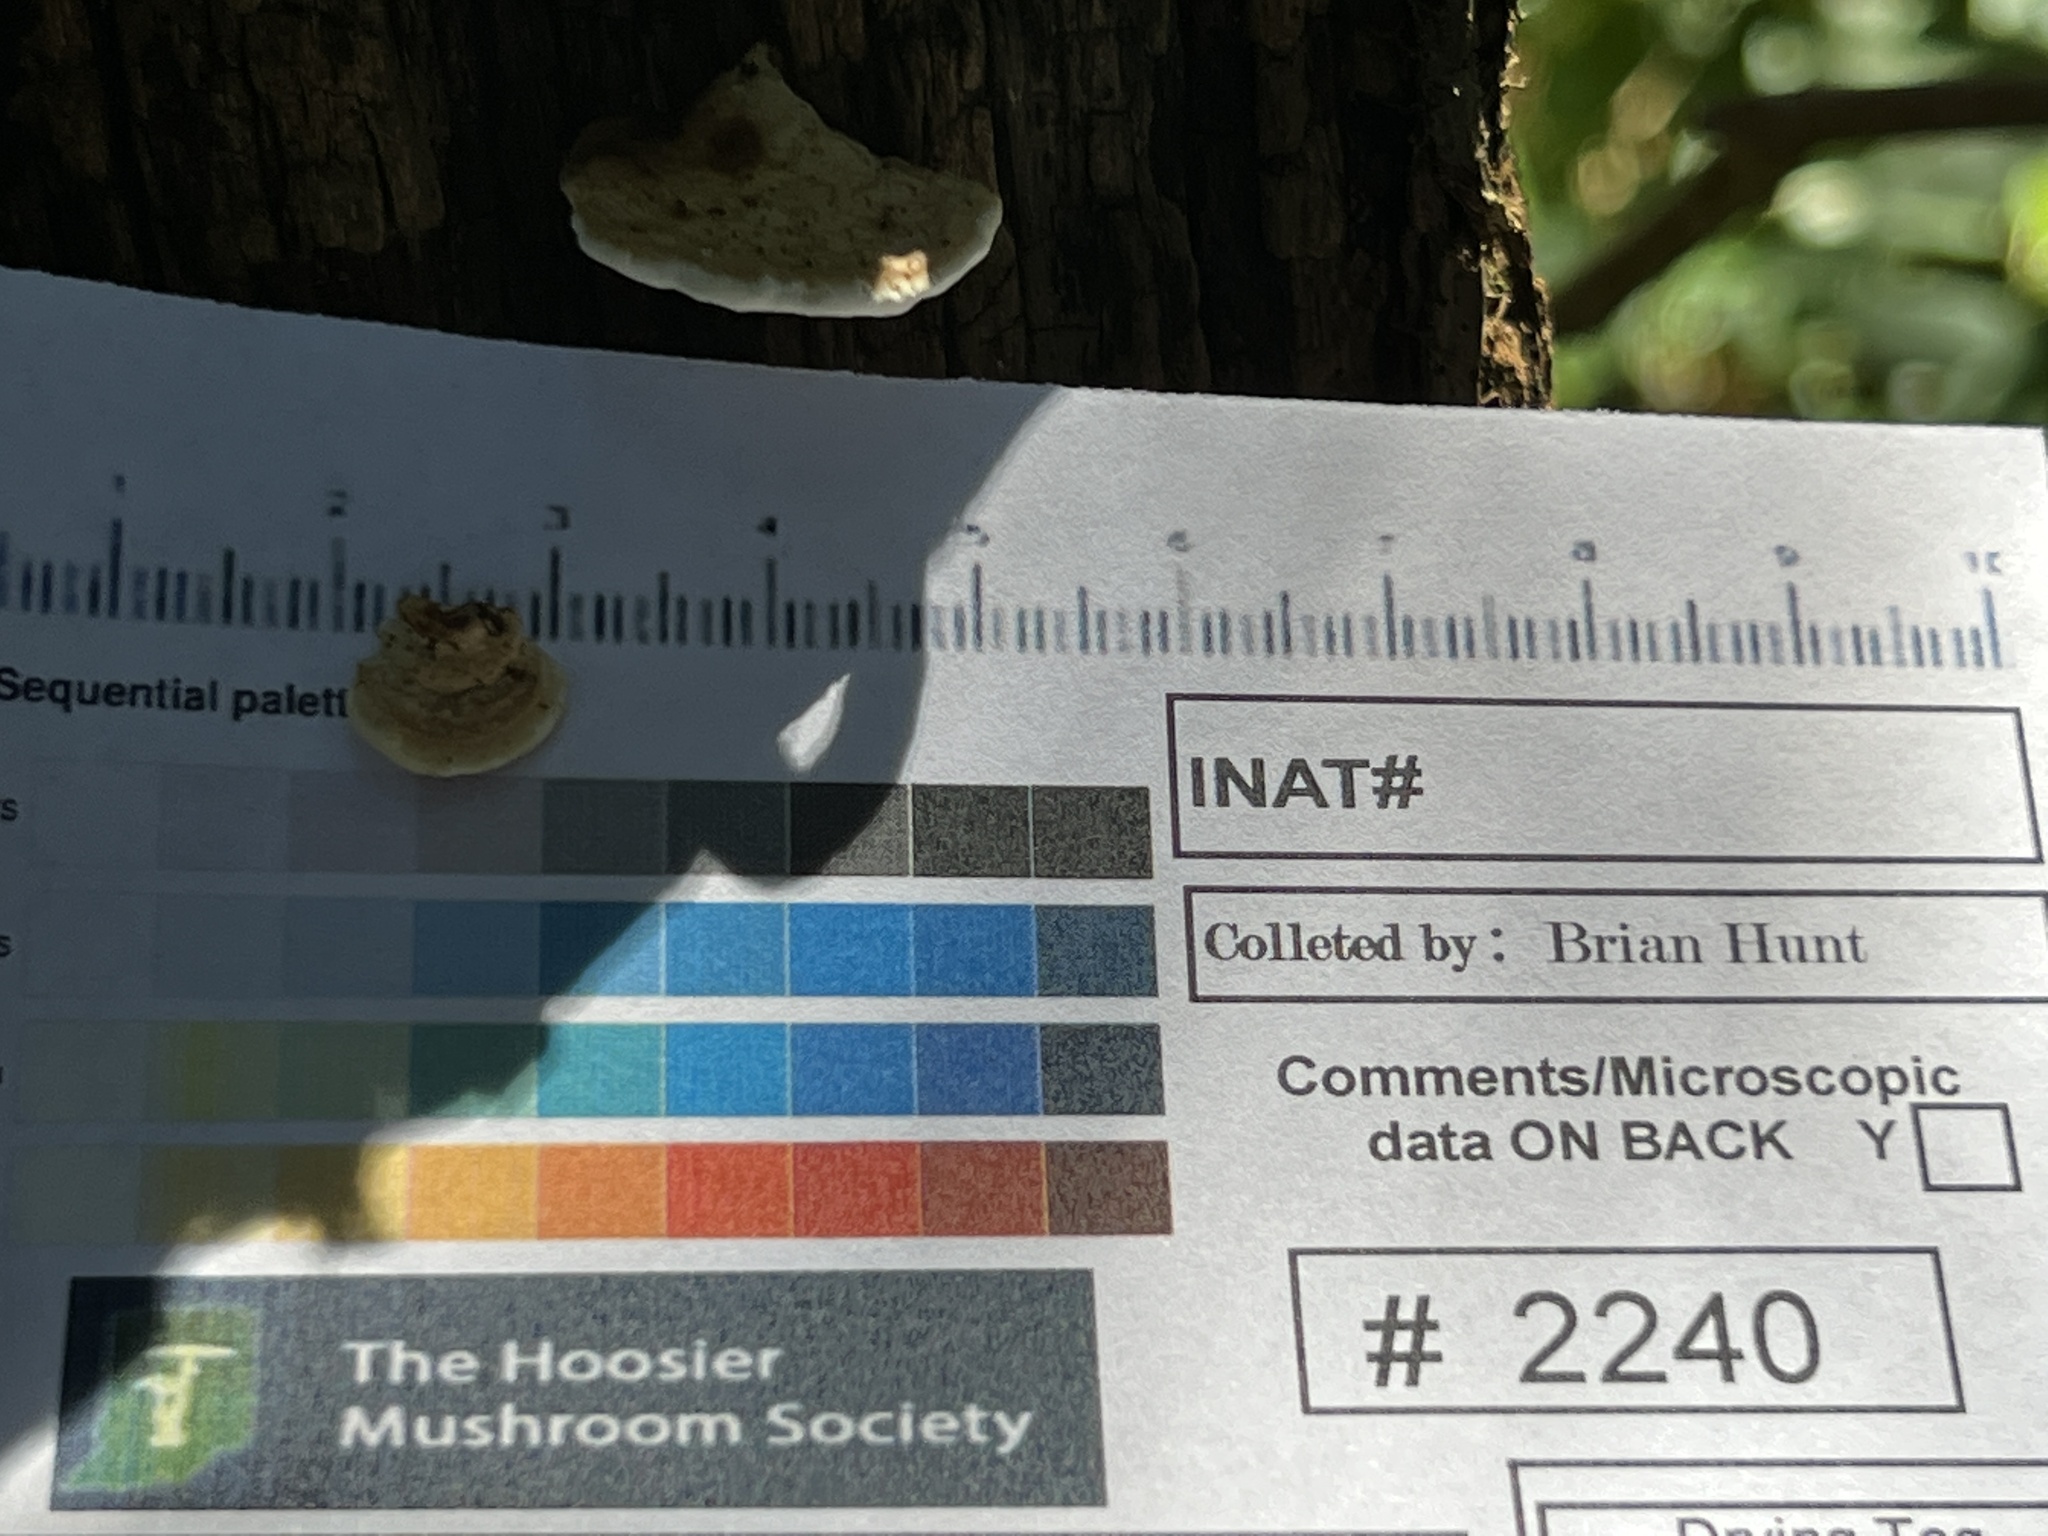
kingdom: Fungi
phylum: Basidiomycota
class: Agaricomycetes
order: Polyporales
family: Polyporaceae
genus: Truncospora
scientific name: Truncospora wisconsinensis
